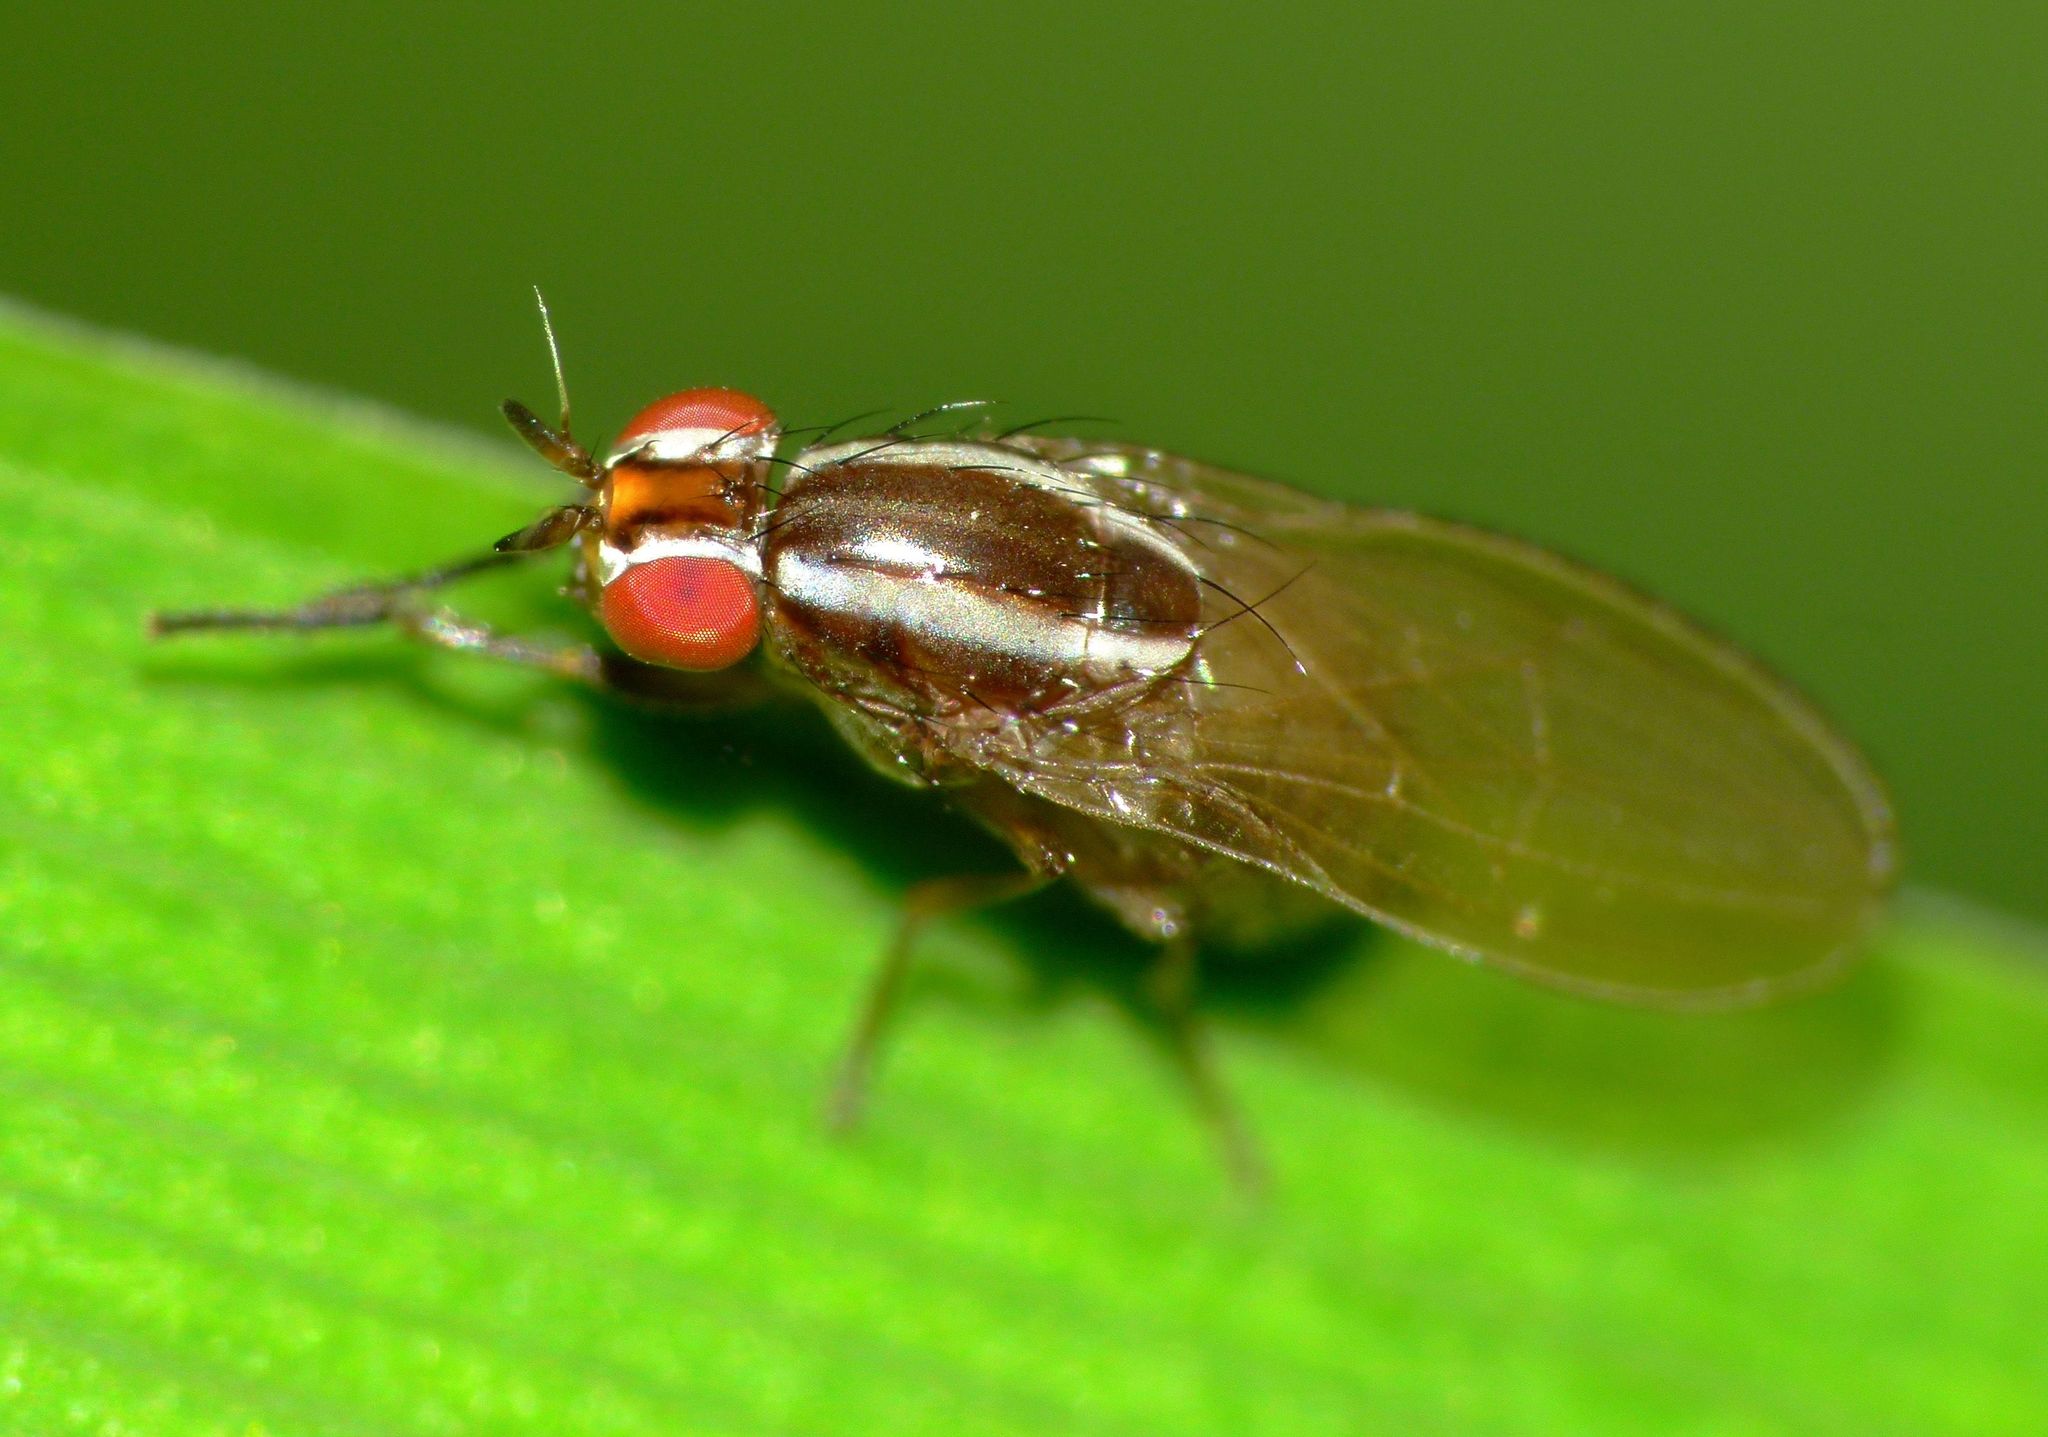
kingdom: Animalia
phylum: Arthropoda
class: Insecta
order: Diptera
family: Lauxaniidae
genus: Poecilohetaerella
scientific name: Poecilohetaerella dubiosa
